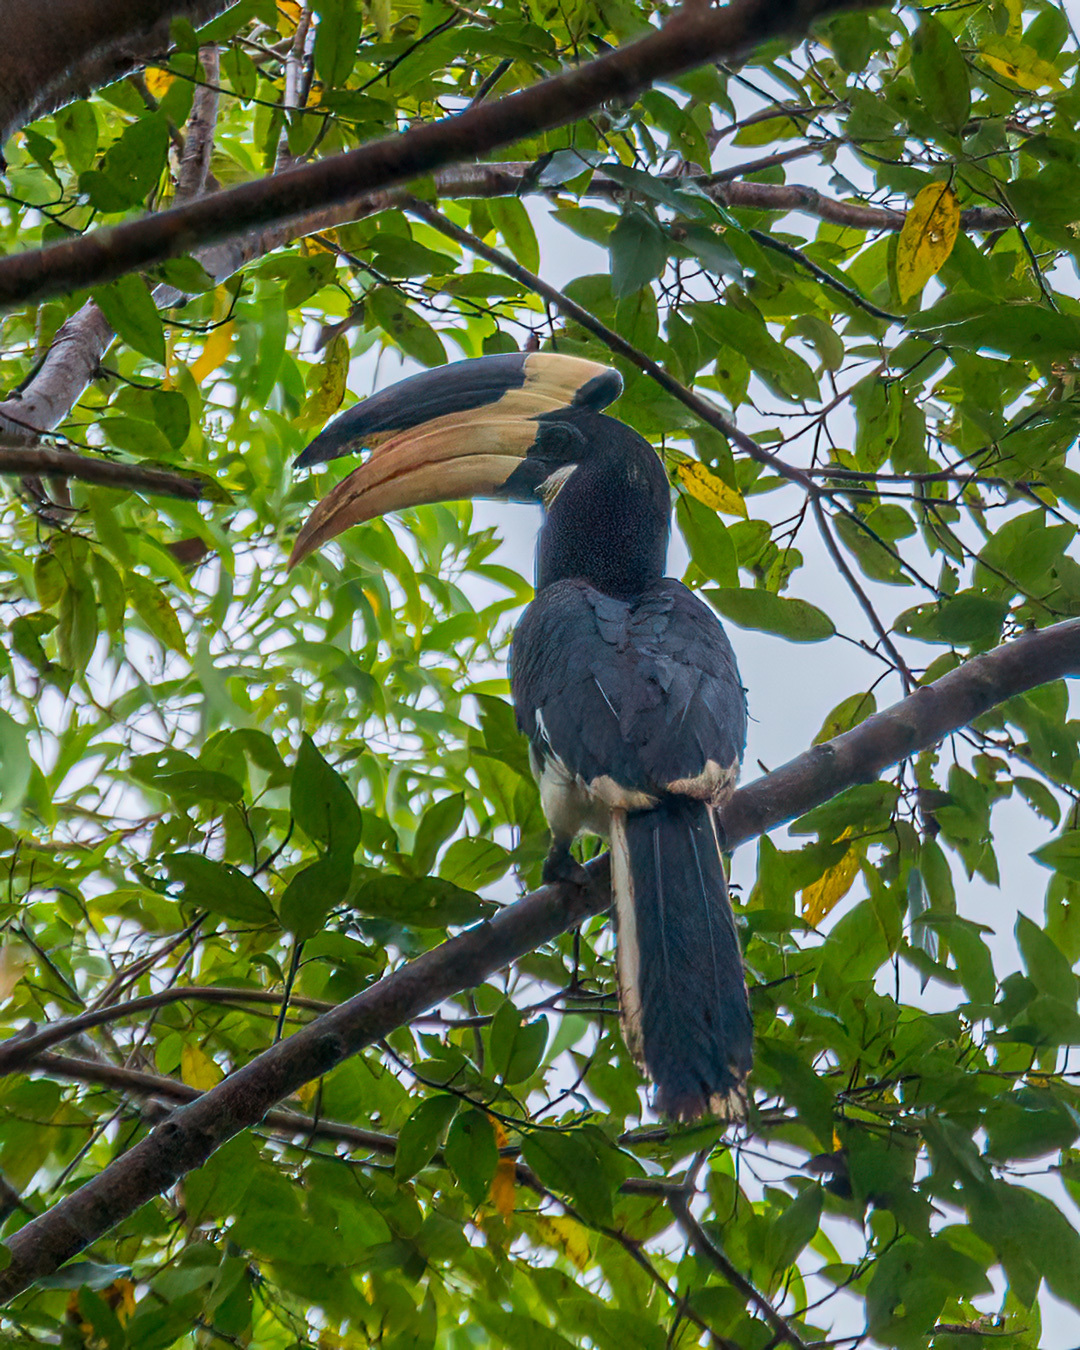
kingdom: Animalia
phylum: Chordata
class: Aves
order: Bucerotiformes
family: Bucerotidae
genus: Anthracoceros
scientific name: Anthracoceros coronatus
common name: Malabar pied hornbill
